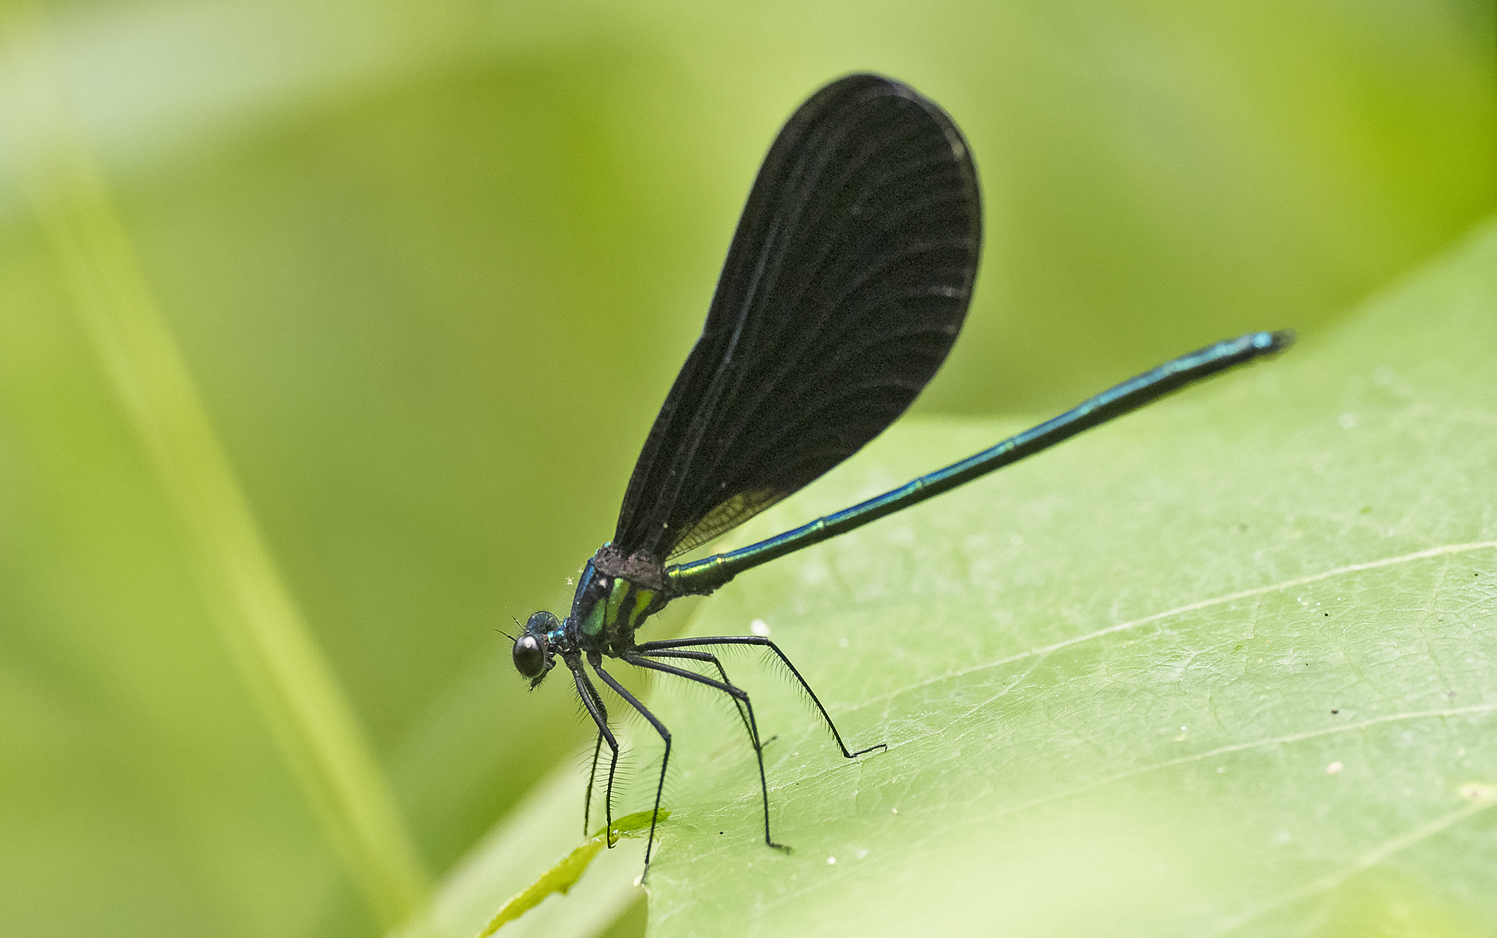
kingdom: Animalia
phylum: Arthropoda
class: Insecta
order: Odonata
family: Calopterygidae
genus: Calopteryx
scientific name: Calopteryx maculata
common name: Ebony jewelwing
